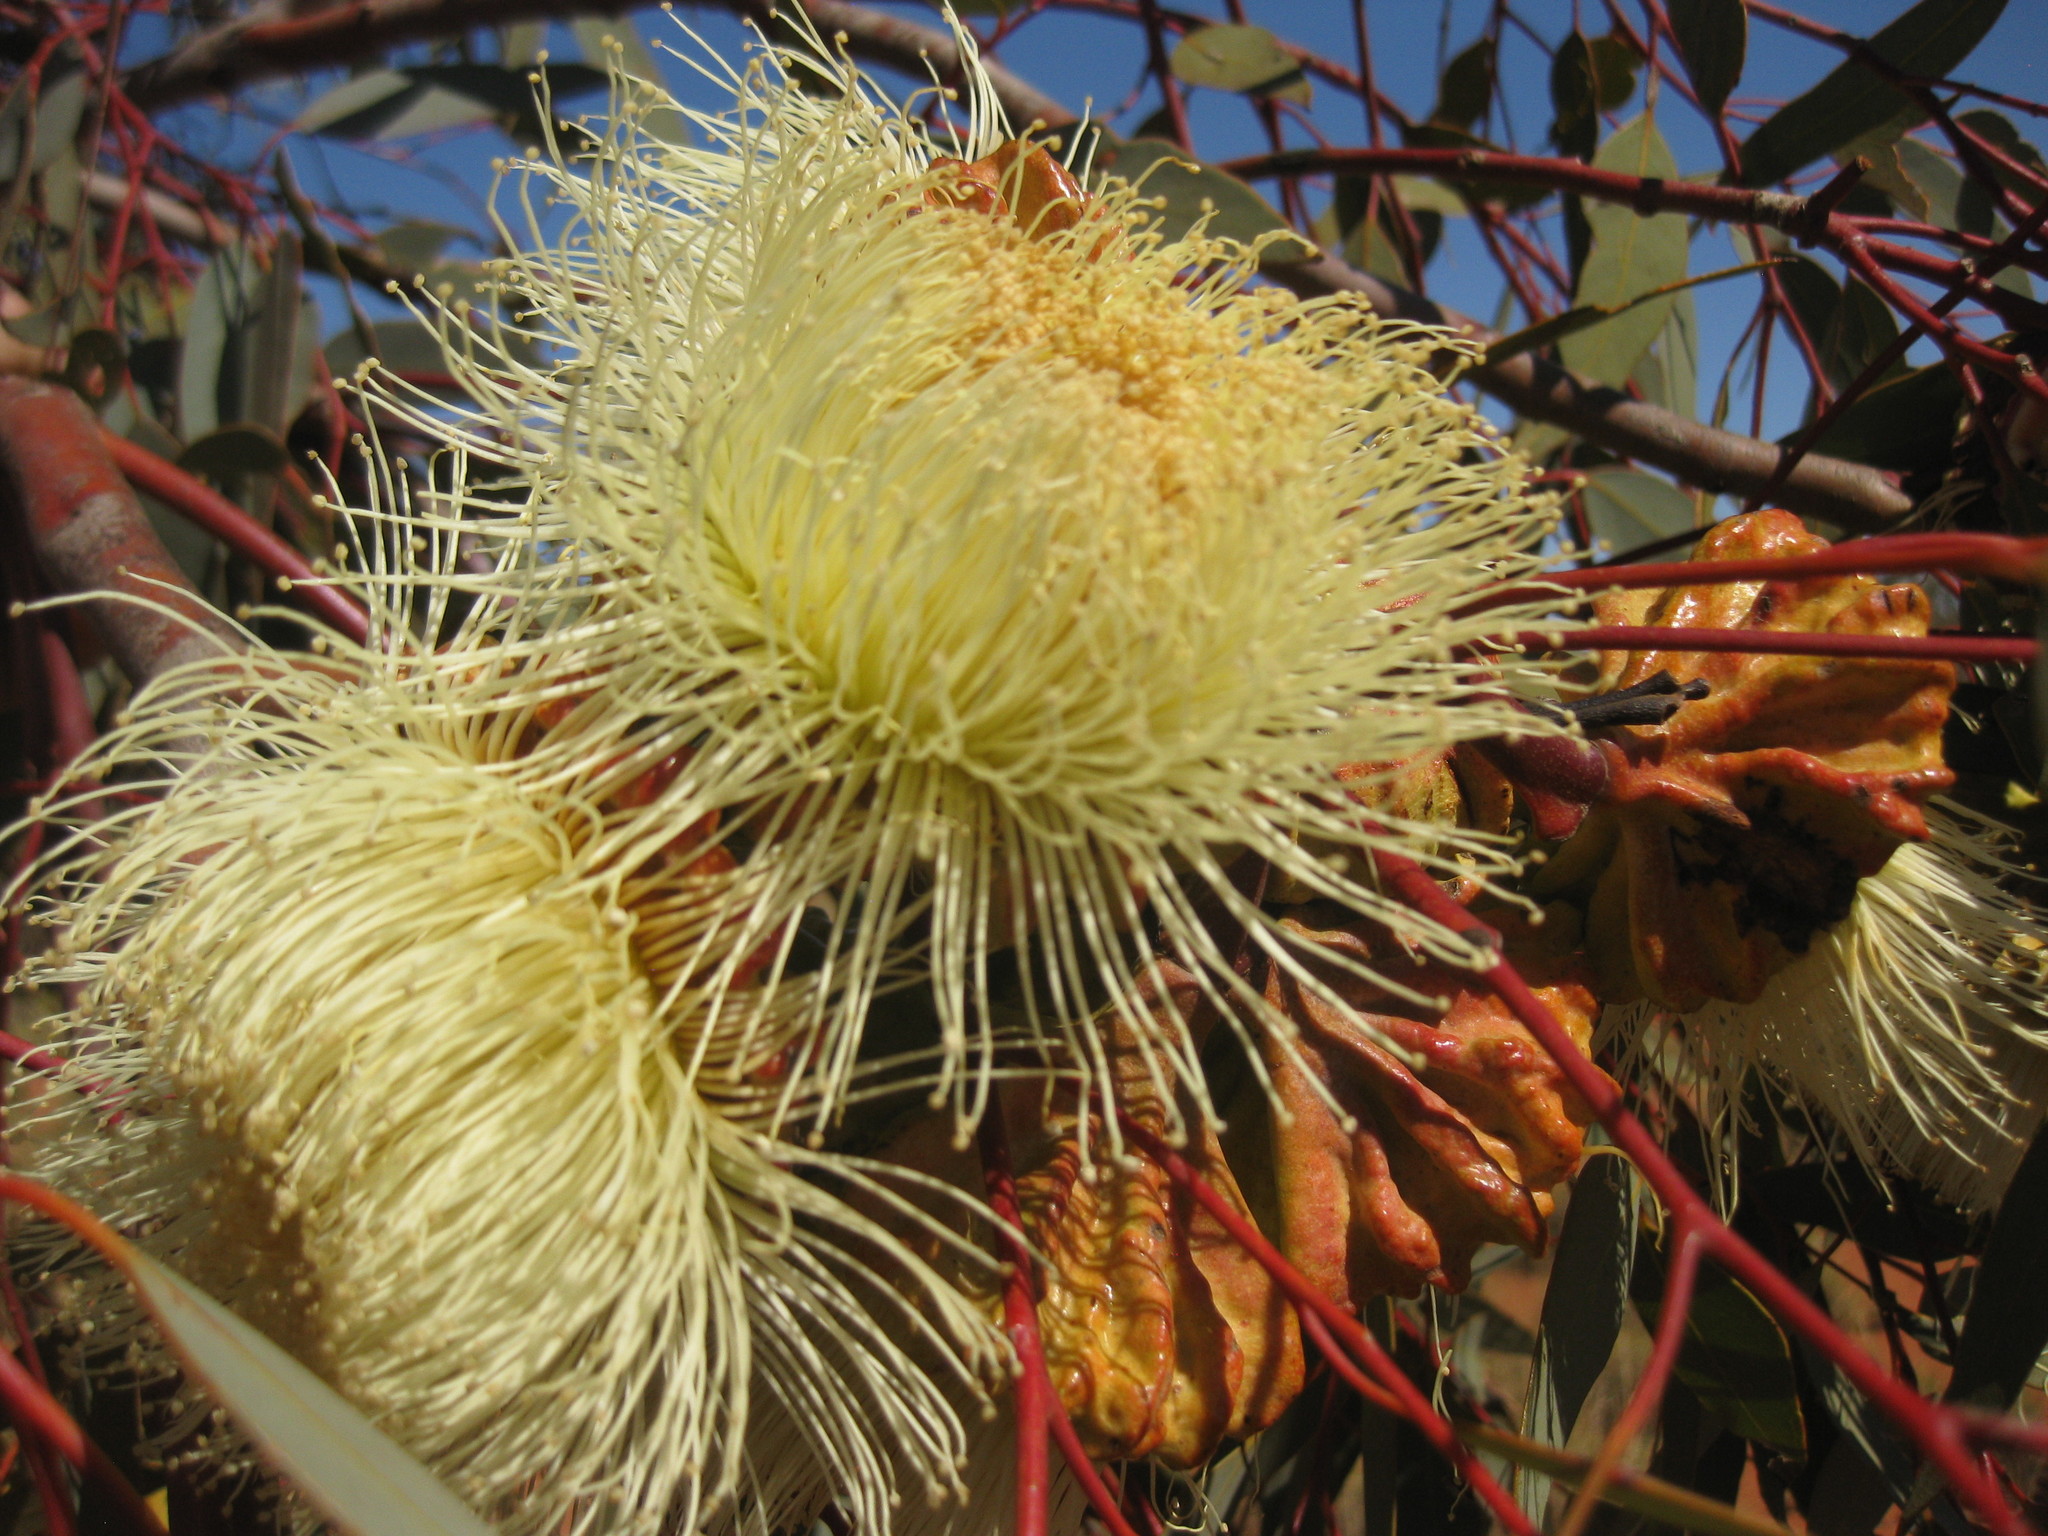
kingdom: Plantae
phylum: Tracheophyta
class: Magnoliopsida
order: Myrtales
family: Myrtaceae
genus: Eucalyptus
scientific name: Eucalyptus youngiana
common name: Large-fruit mallee
